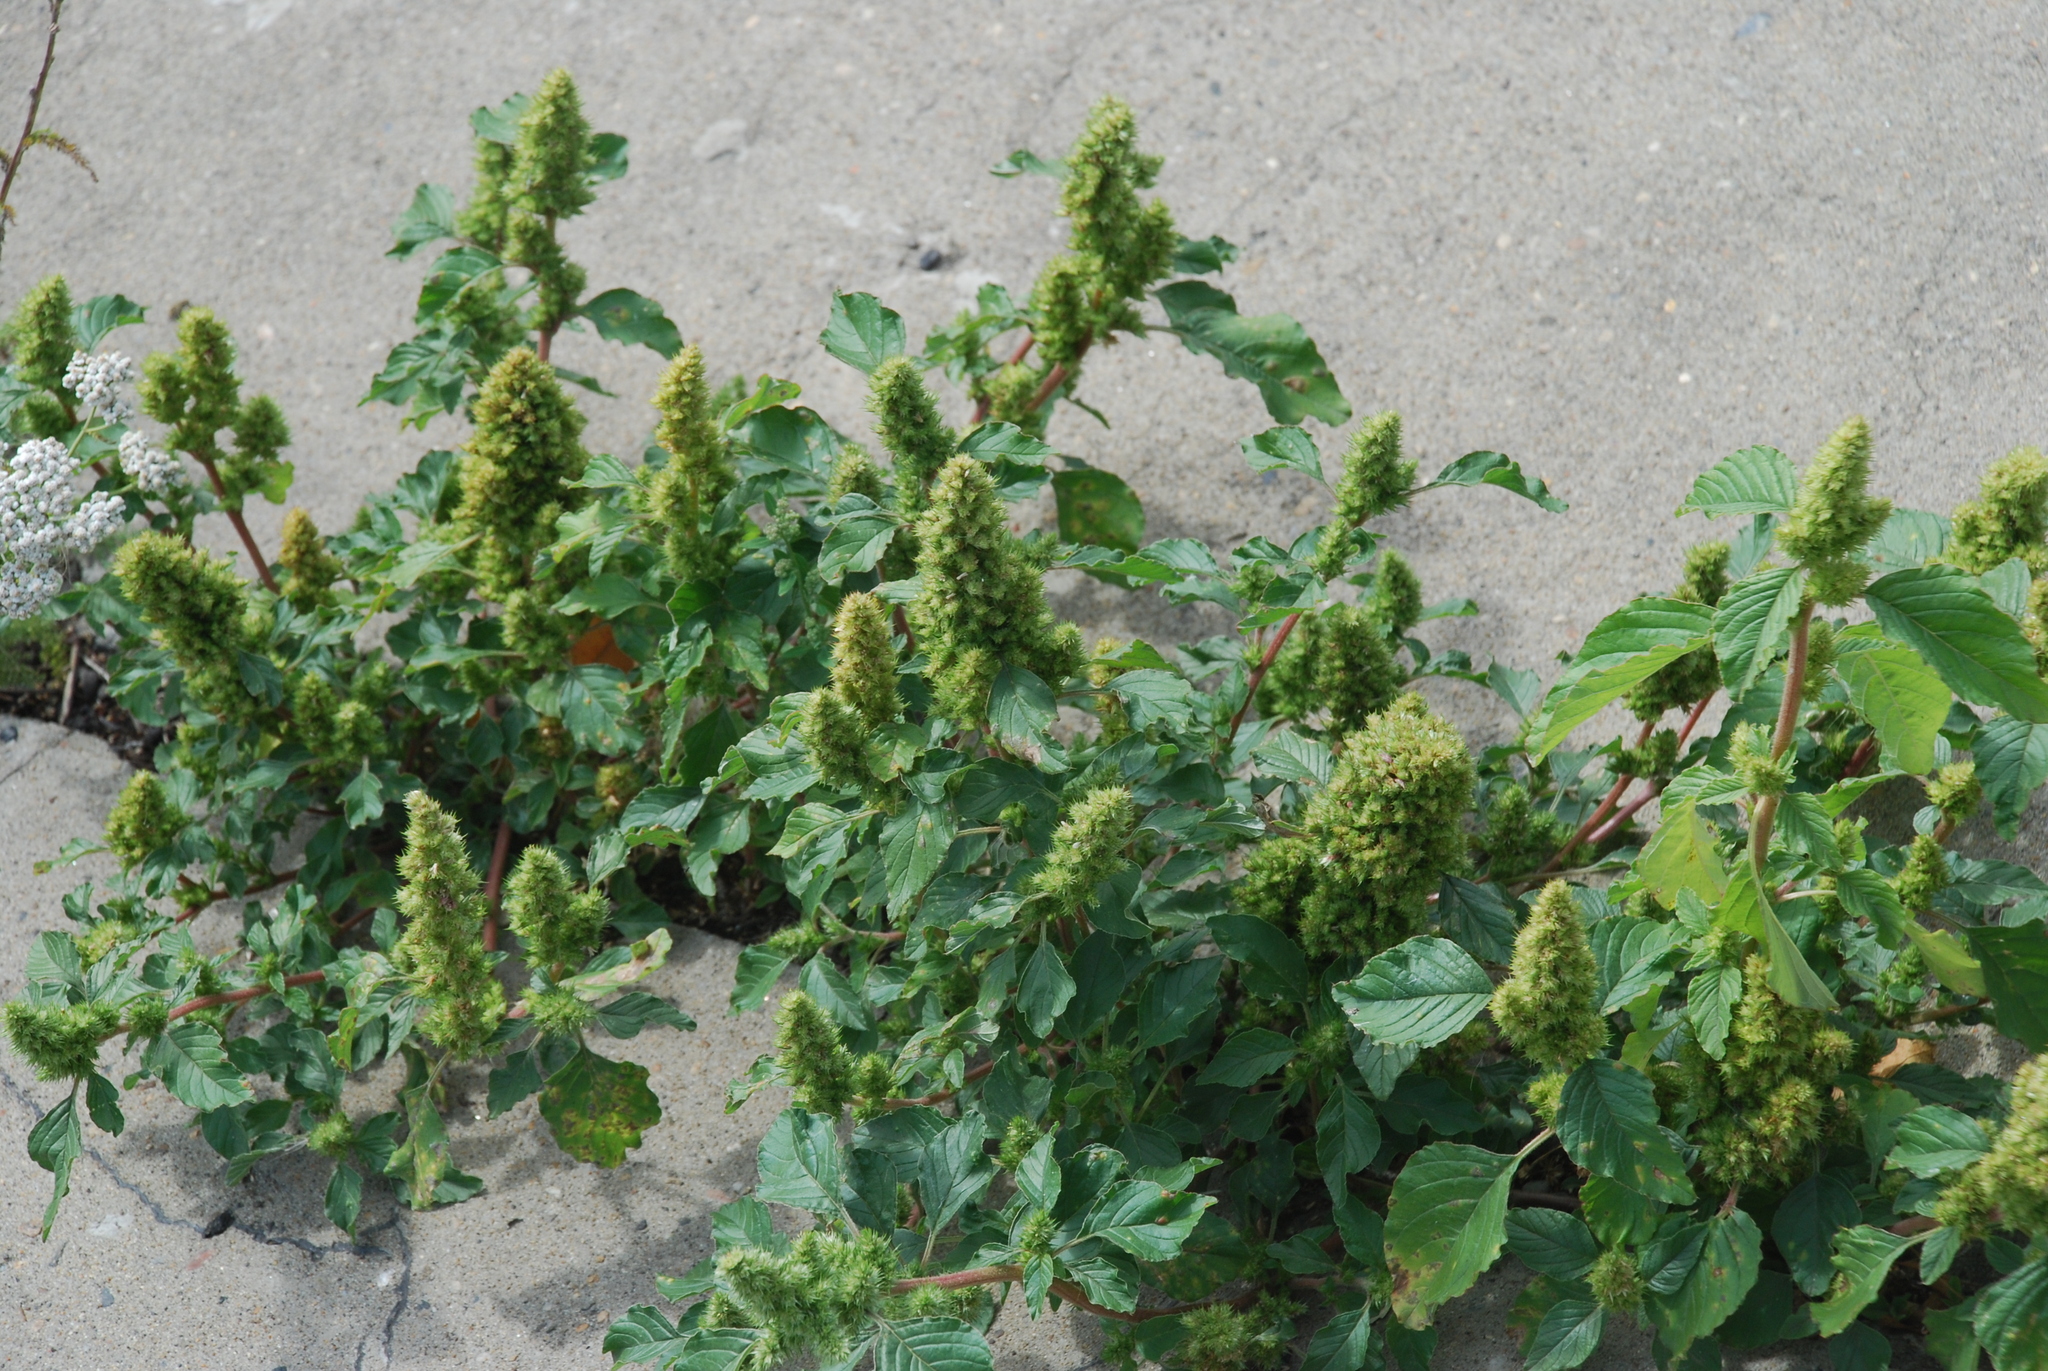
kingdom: Plantae
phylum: Tracheophyta
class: Magnoliopsida
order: Caryophyllales
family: Amaranthaceae
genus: Amaranthus
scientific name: Amaranthus retroflexus
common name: Redroot amaranth
